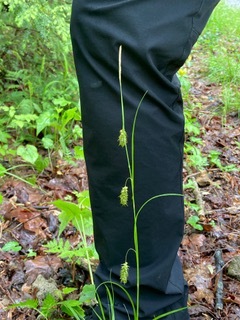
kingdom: Plantae
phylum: Tracheophyta
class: Liliopsida
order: Poales
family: Cyperaceae
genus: Carex
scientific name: Carex cherokeensis
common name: Cherokee sedge
